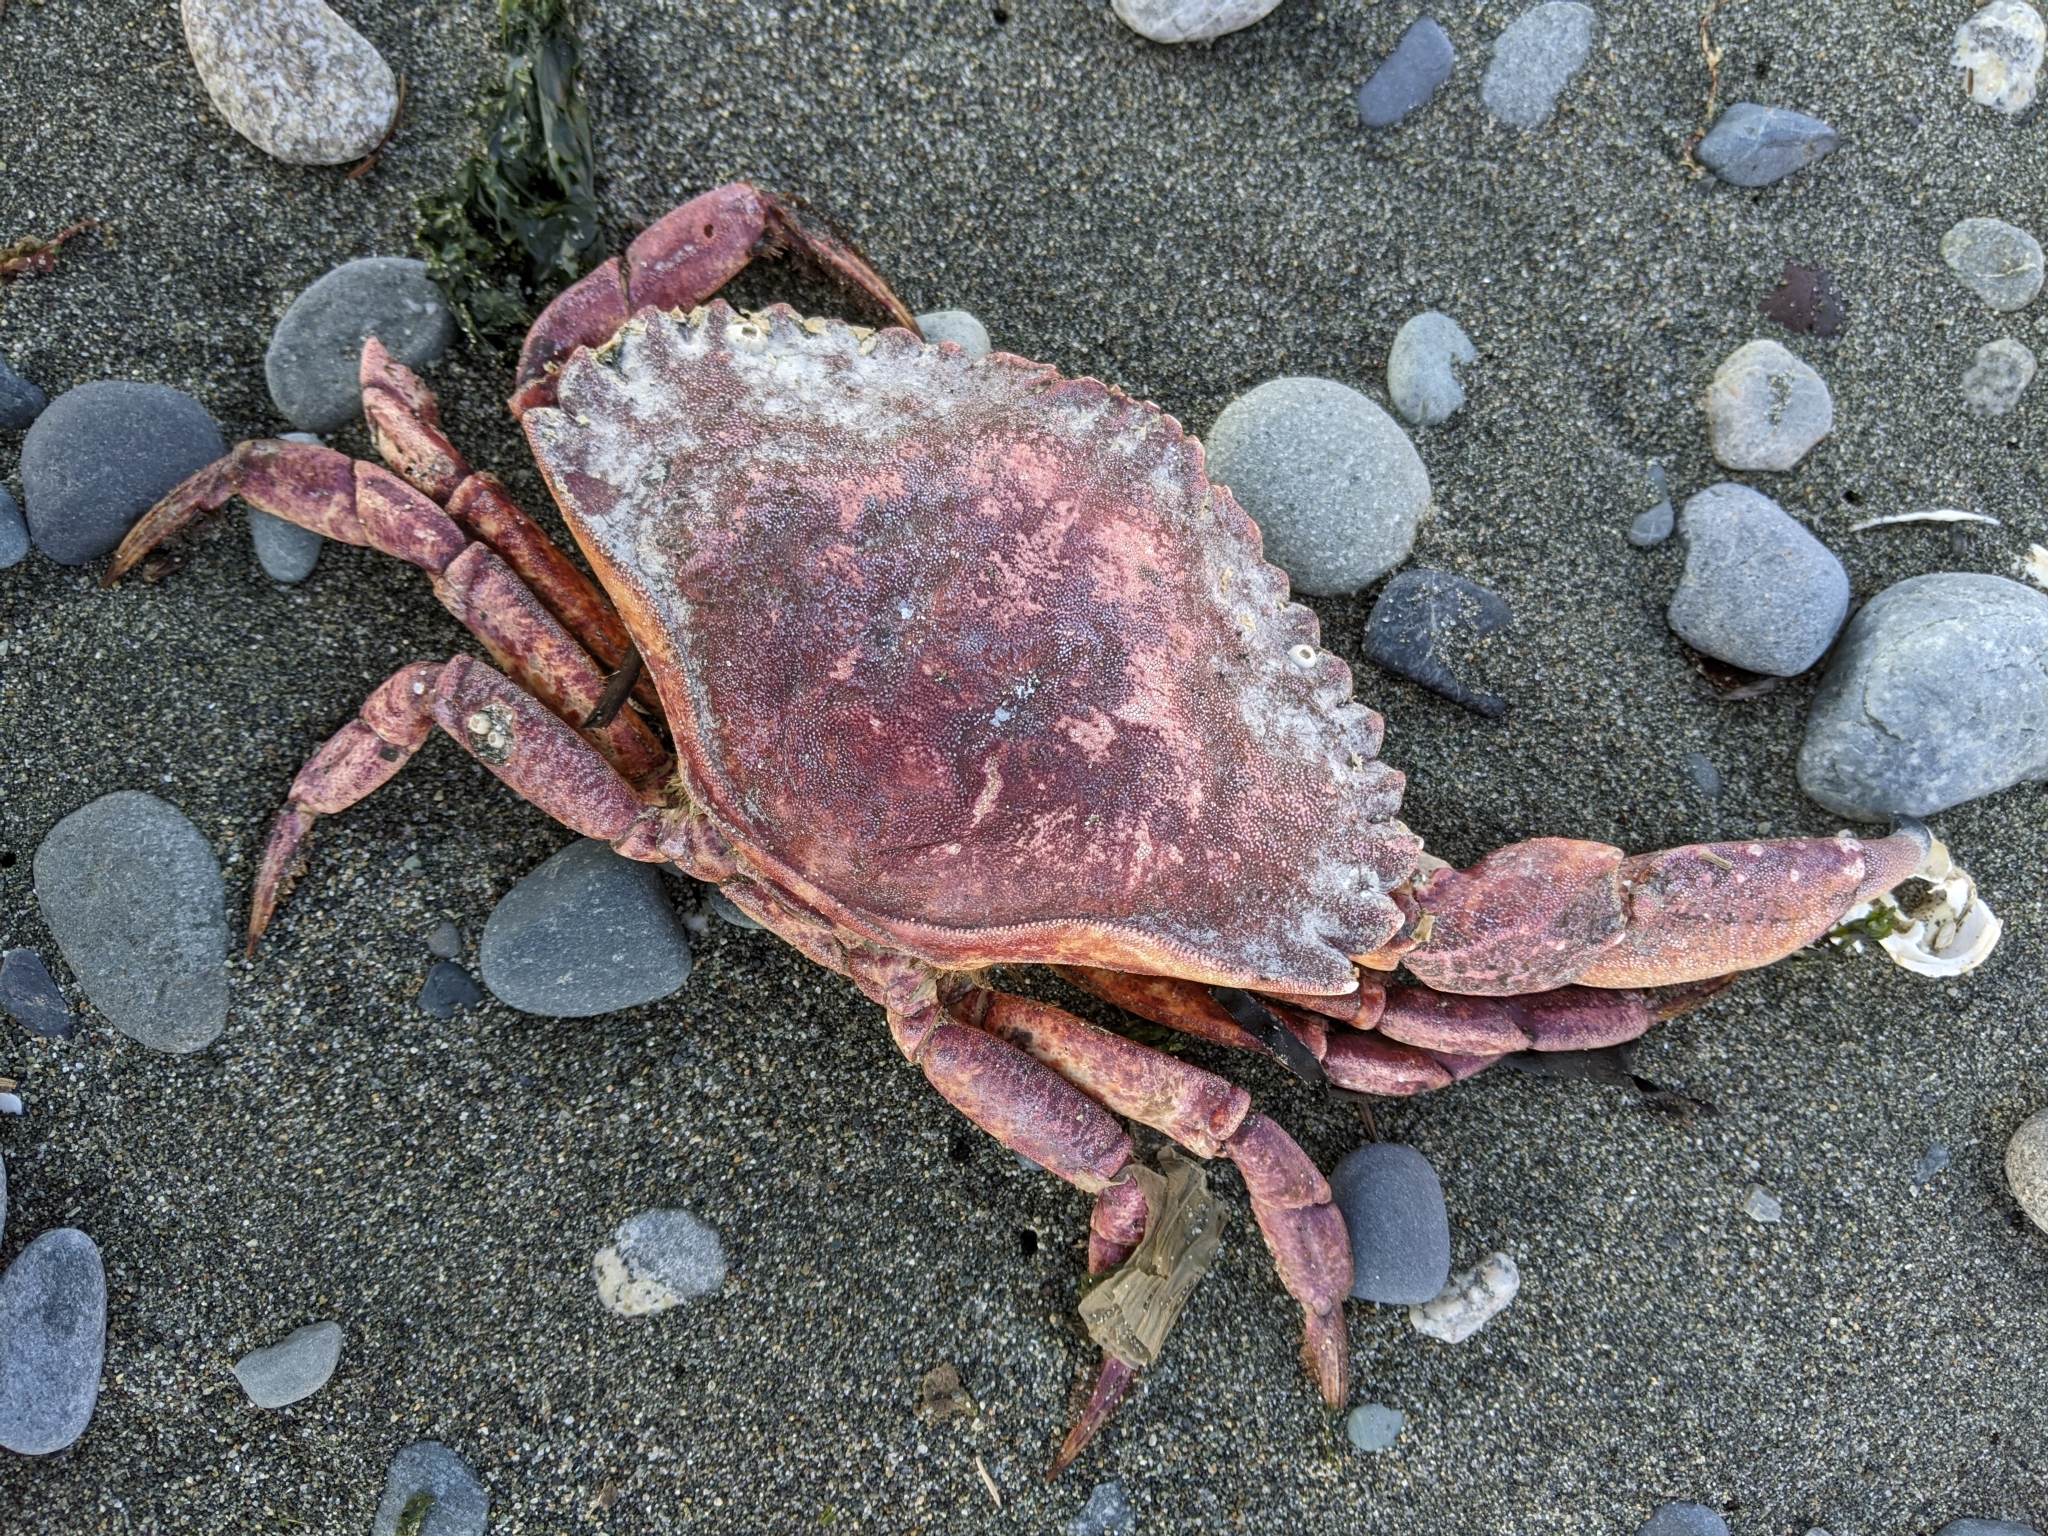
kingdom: Animalia
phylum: Arthropoda
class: Malacostraca
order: Decapoda
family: Cancridae
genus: Cancer
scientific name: Cancer productus
